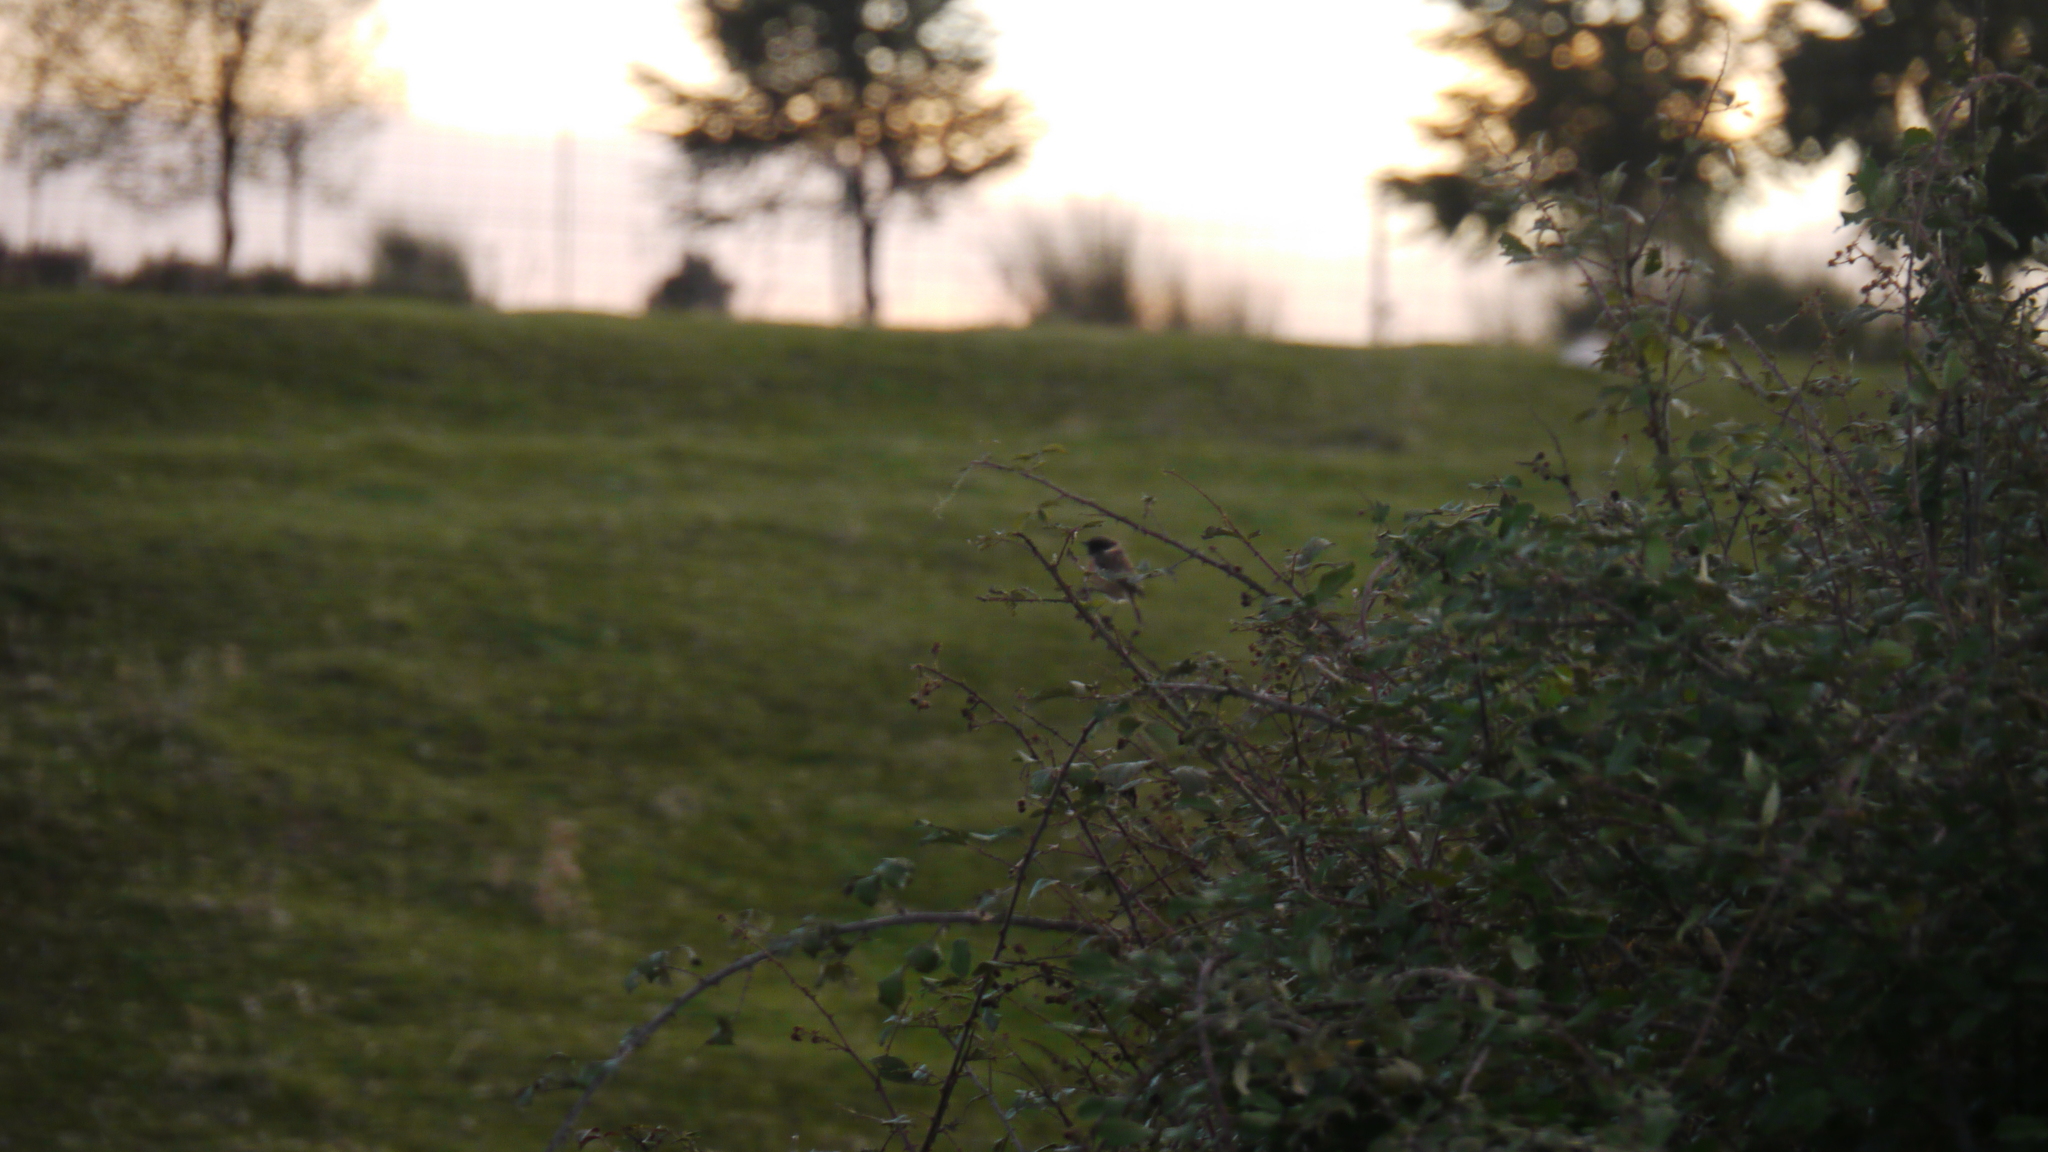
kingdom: Animalia
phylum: Chordata
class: Aves
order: Passeriformes
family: Muscicapidae
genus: Saxicola
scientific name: Saxicola rubicola
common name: European stonechat
